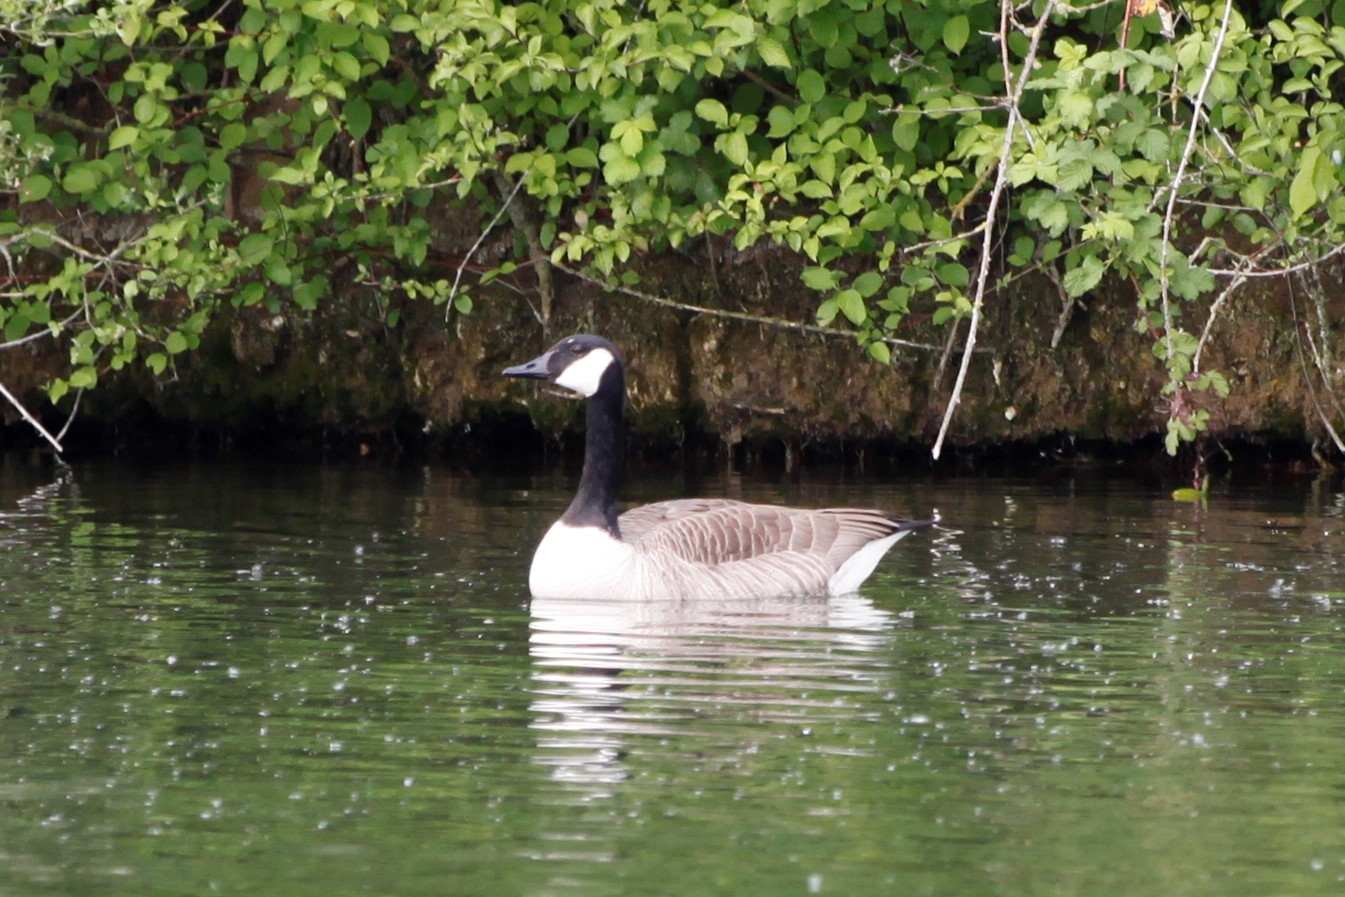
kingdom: Animalia
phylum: Chordata
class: Aves
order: Anseriformes
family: Anatidae
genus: Branta
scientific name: Branta canadensis
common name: Canada goose
